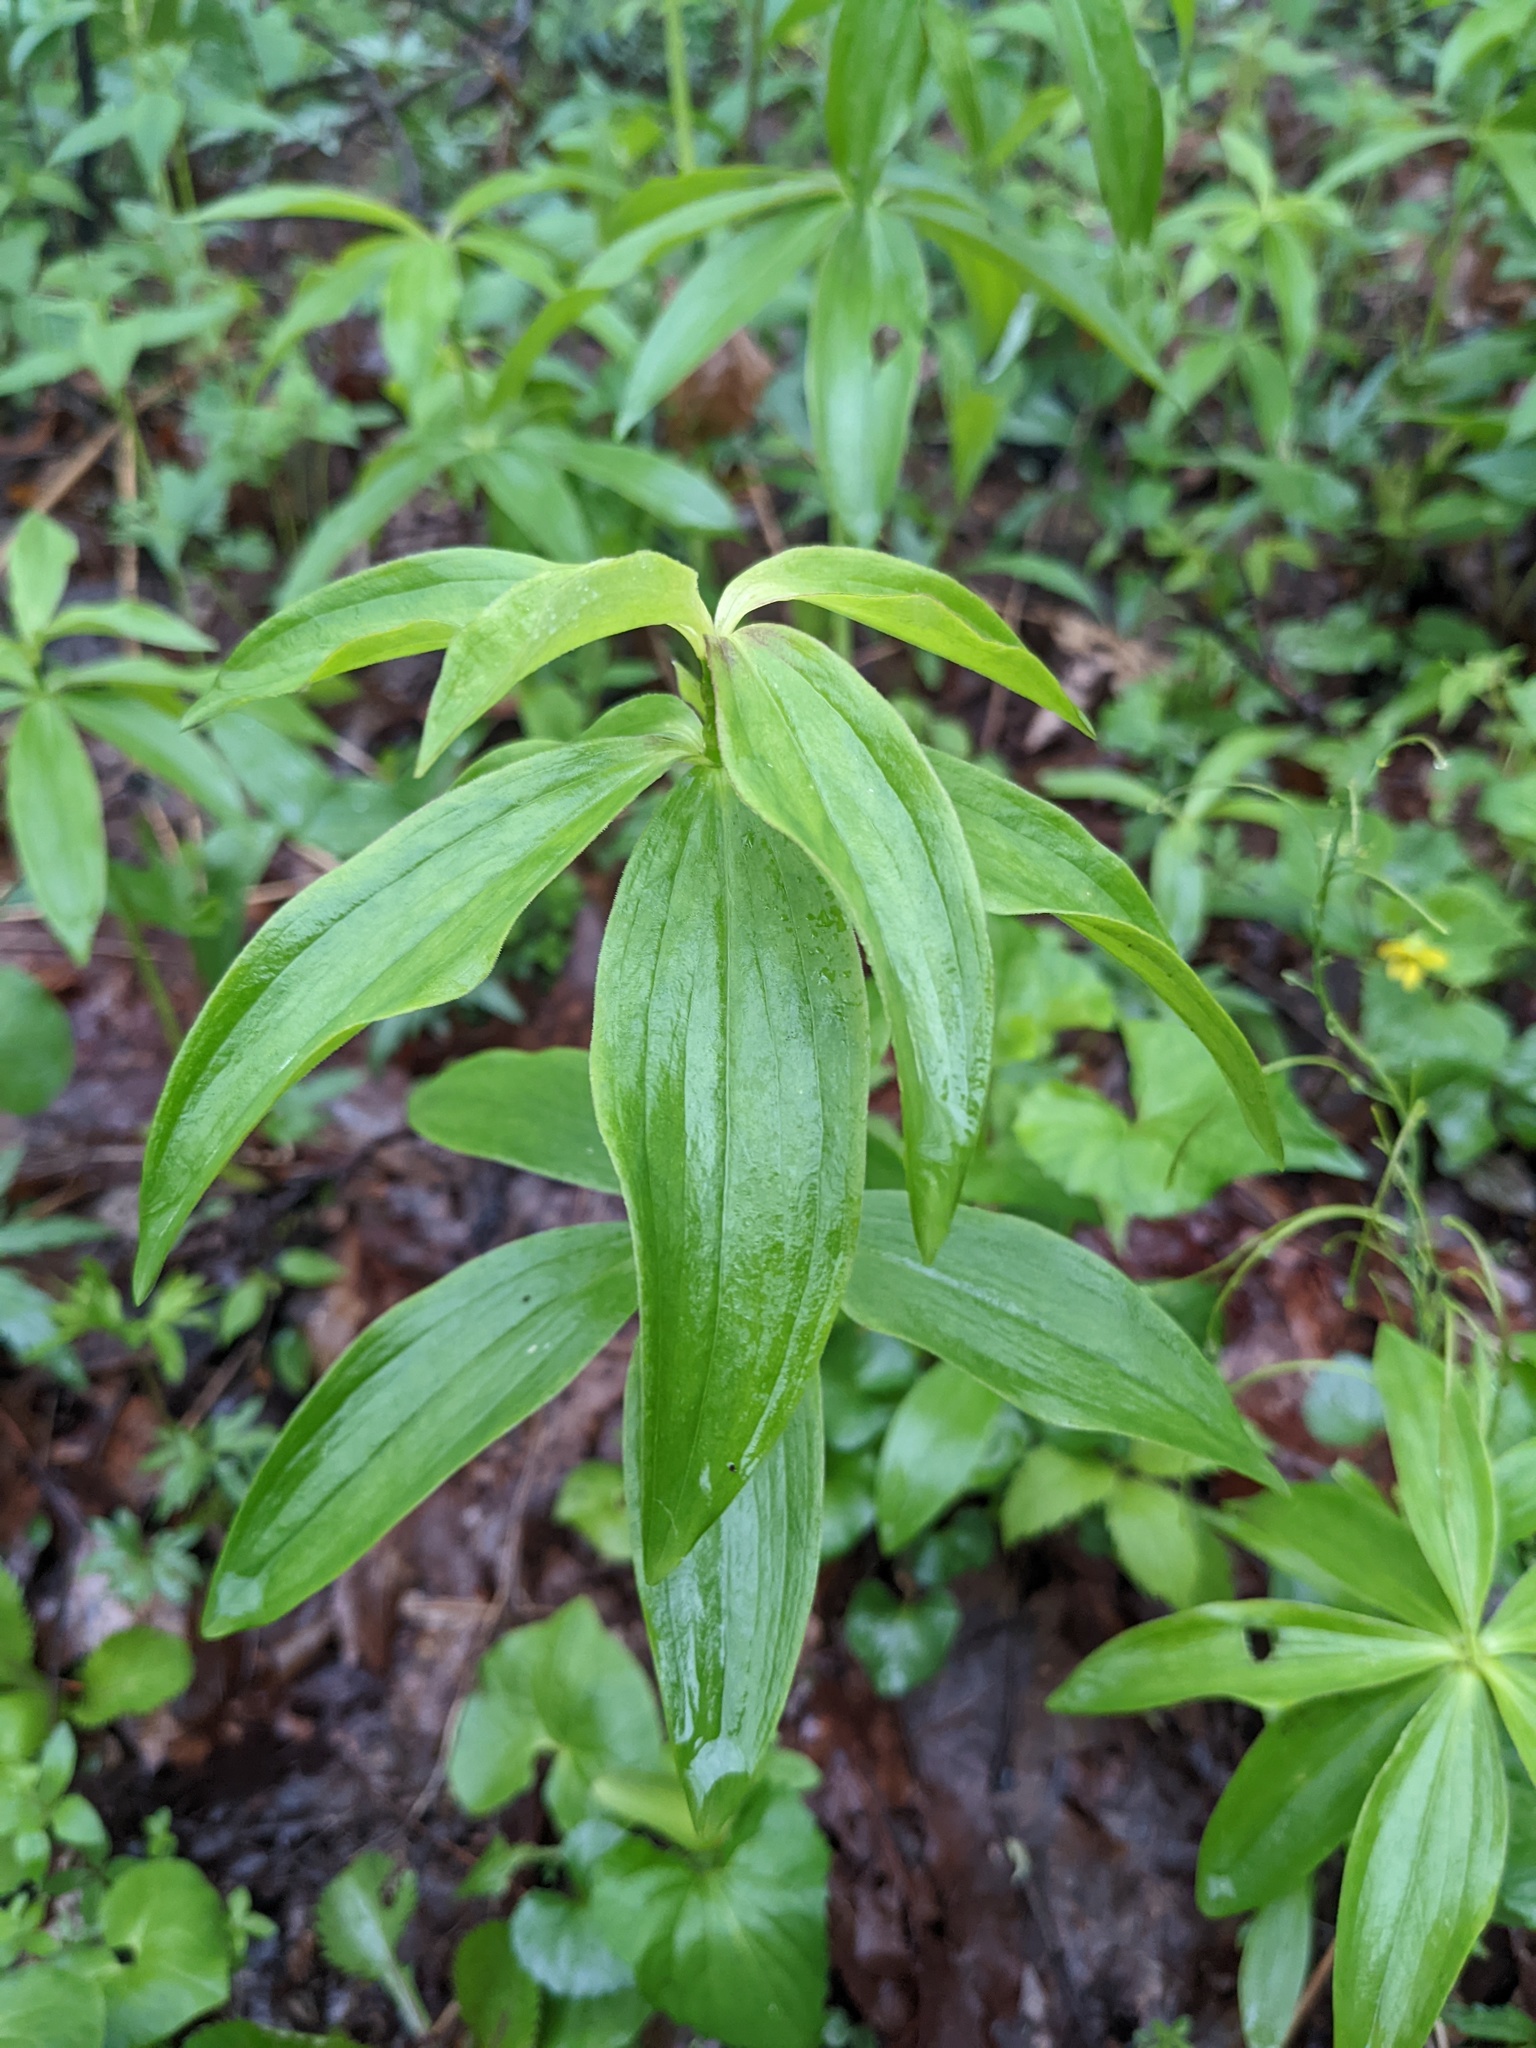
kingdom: Plantae
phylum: Tracheophyta
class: Liliopsida
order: Liliales
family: Liliaceae
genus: Medeola
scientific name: Medeola virginiana
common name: Indian cucumber-root
